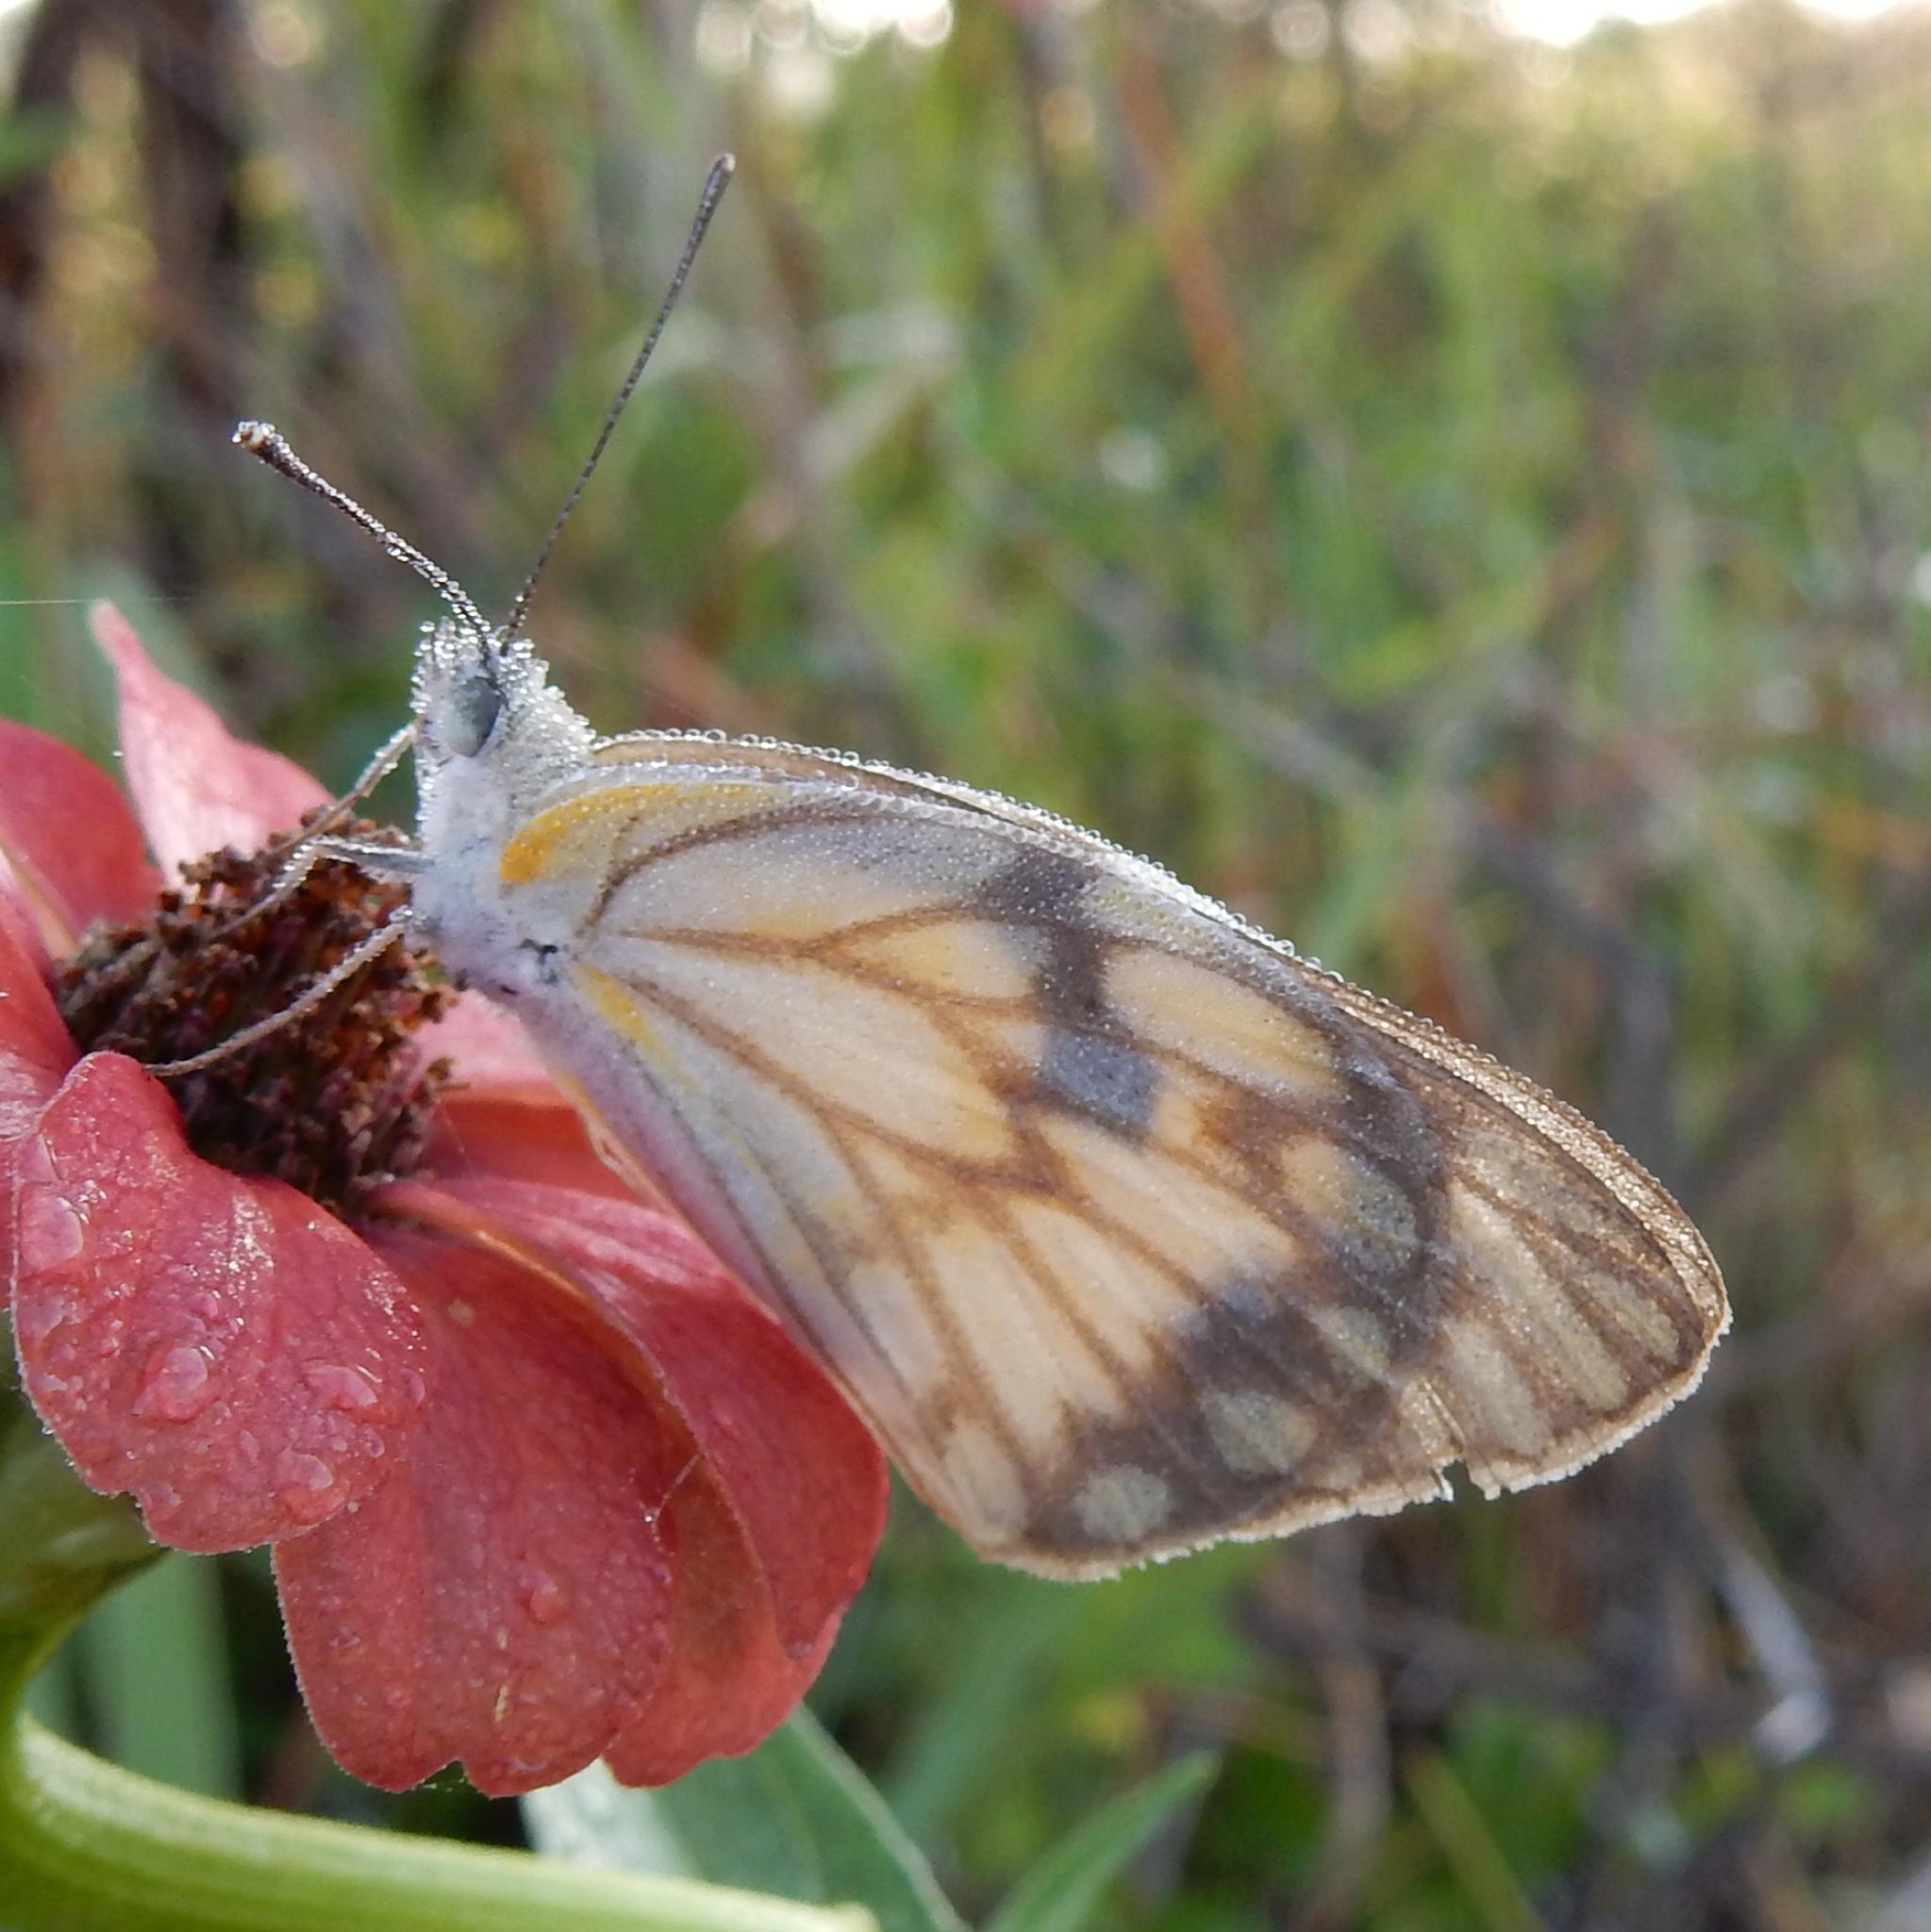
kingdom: Animalia
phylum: Arthropoda
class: Insecta
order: Lepidoptera
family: Pieridae
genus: Belenois
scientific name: Belenois aurota
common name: Brown-veined white
